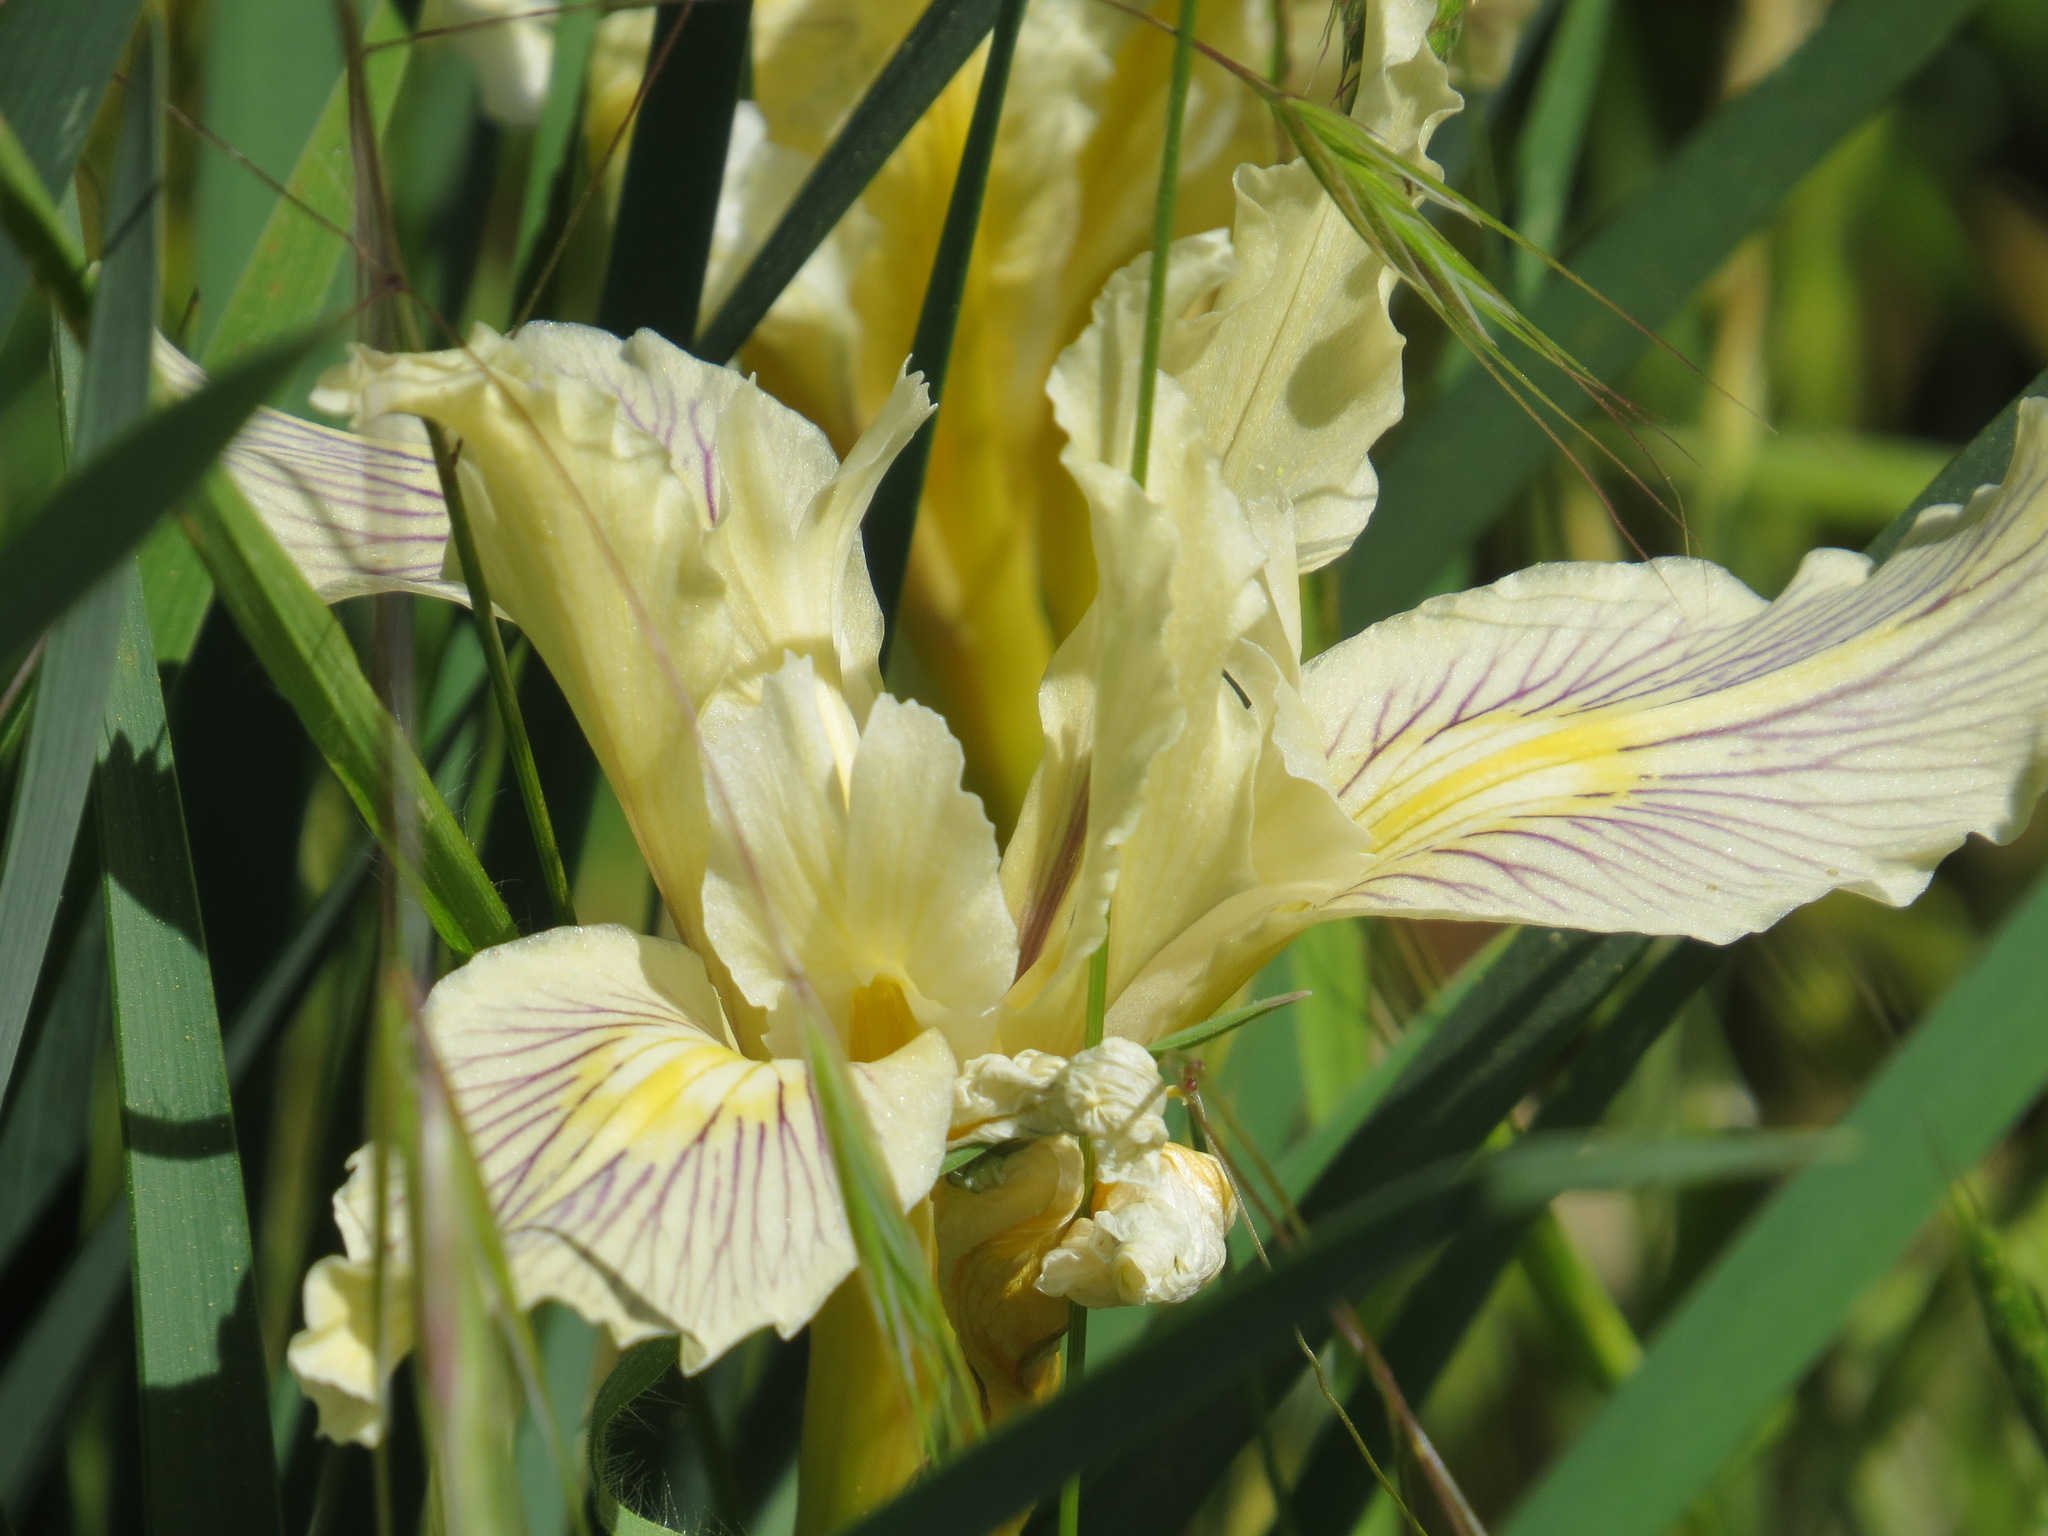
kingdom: Plantae
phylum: Tracheophyta
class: Liliopsida
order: Asparagales
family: Iridaceae
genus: Iris
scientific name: Iris fernaldii
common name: Fernald's iris
